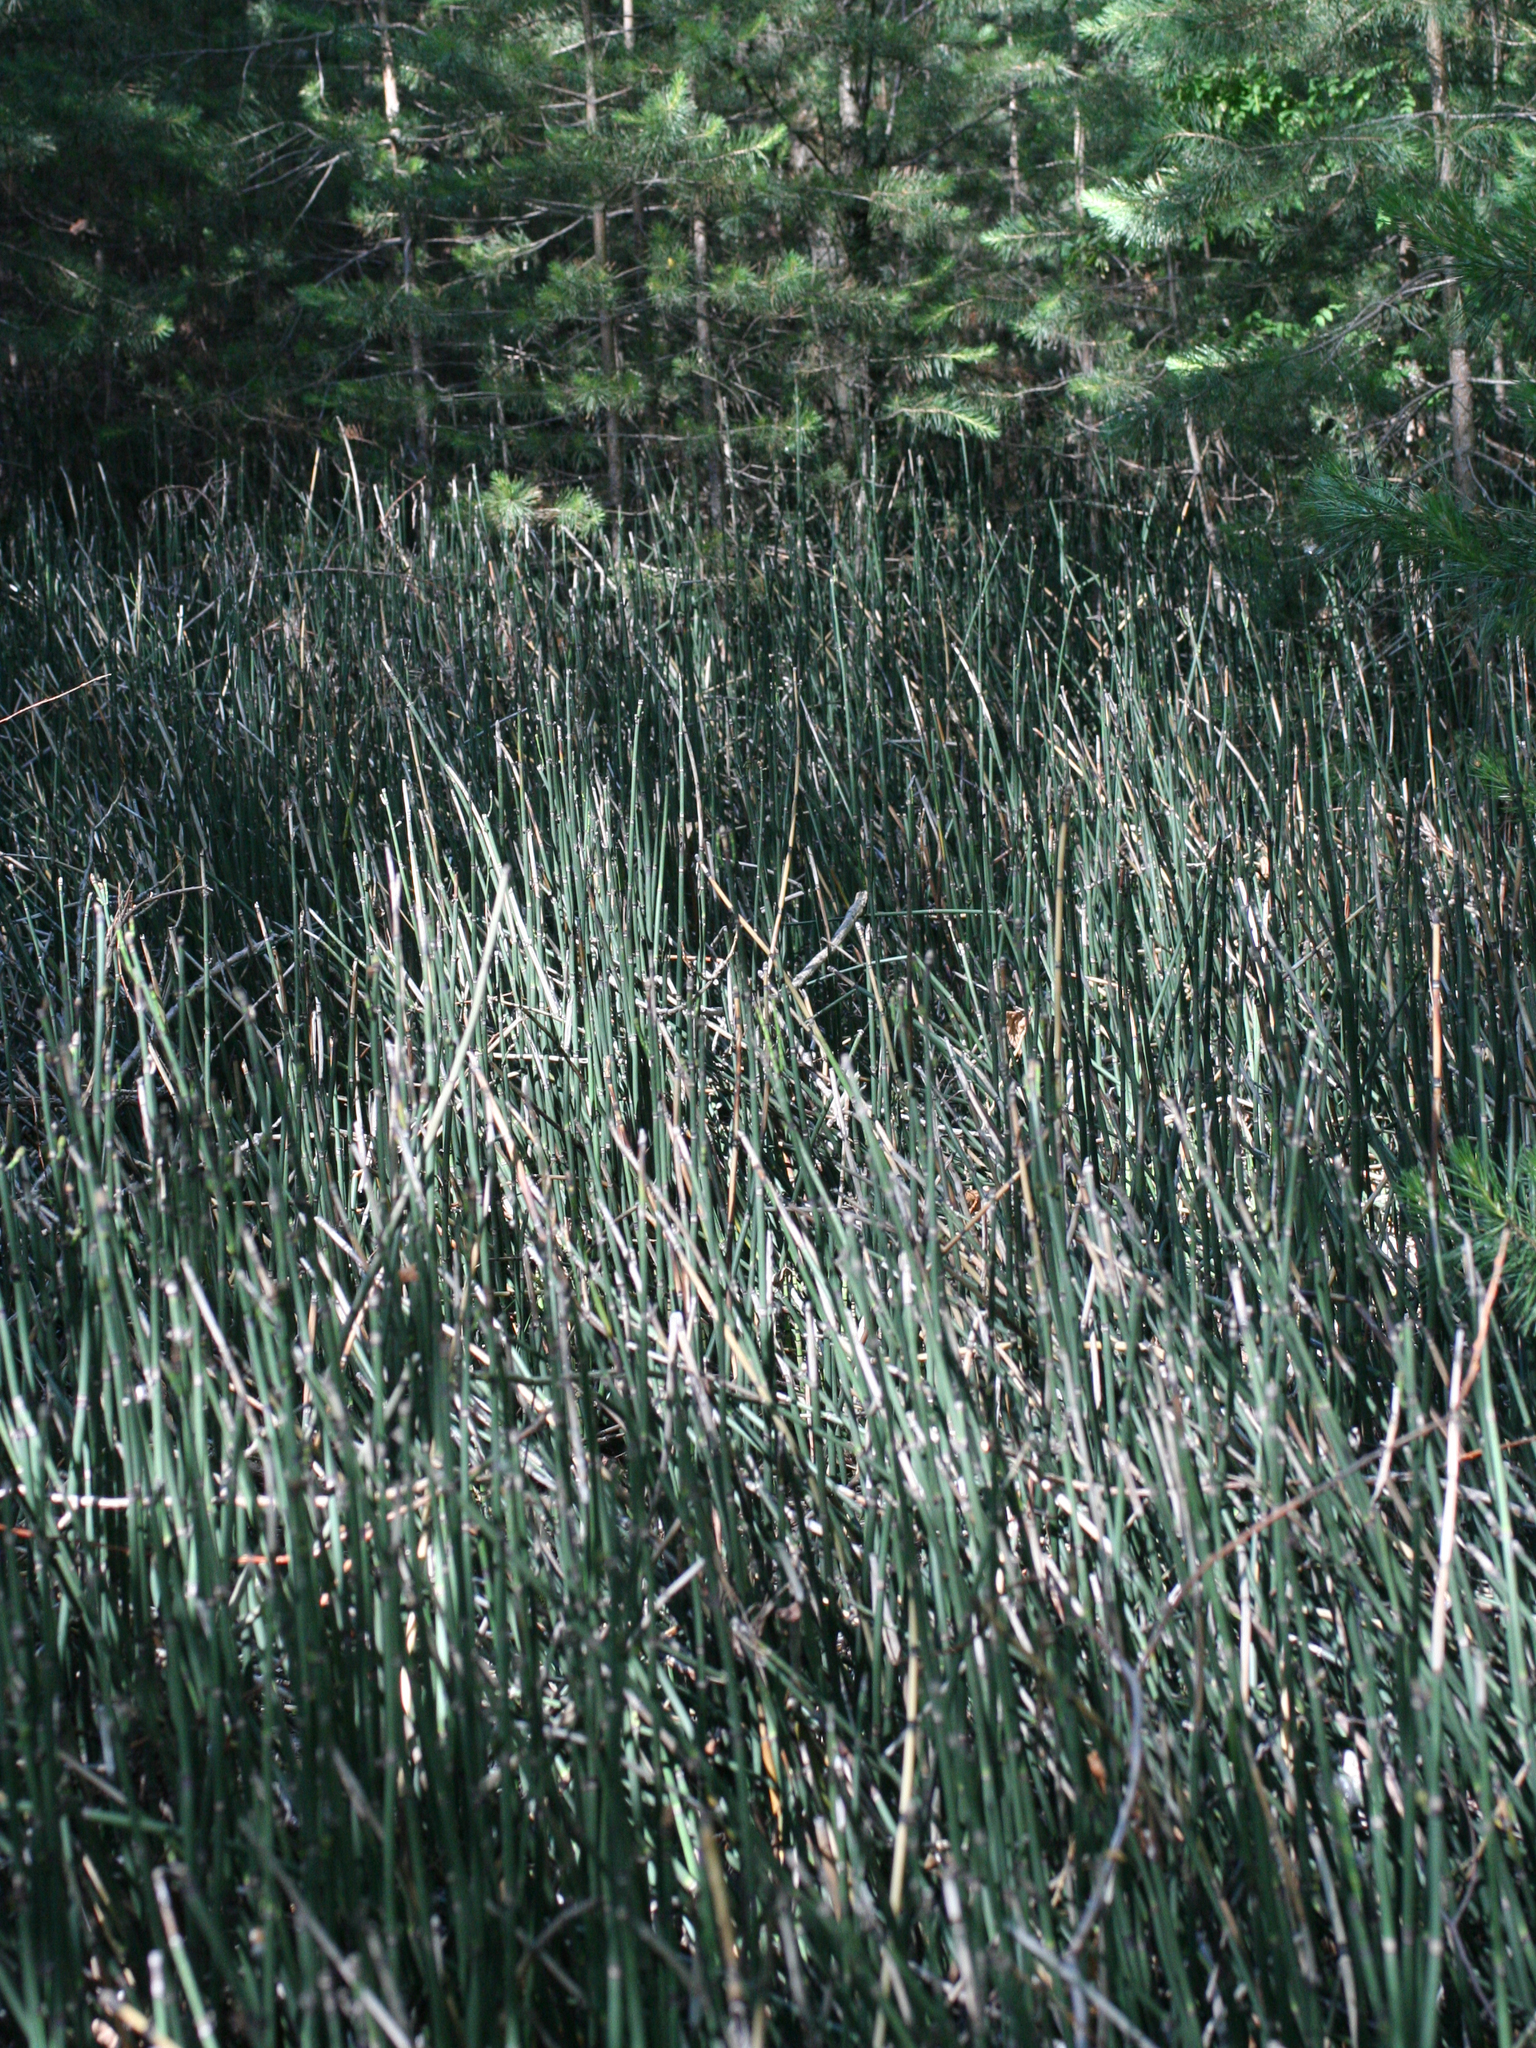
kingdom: Plantae
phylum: Tracheophyta
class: Polypodiopsida
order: Equisetales
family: Equisetaceae
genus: Equisetum
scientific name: Equisetum hyemale
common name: Rough horsetail
